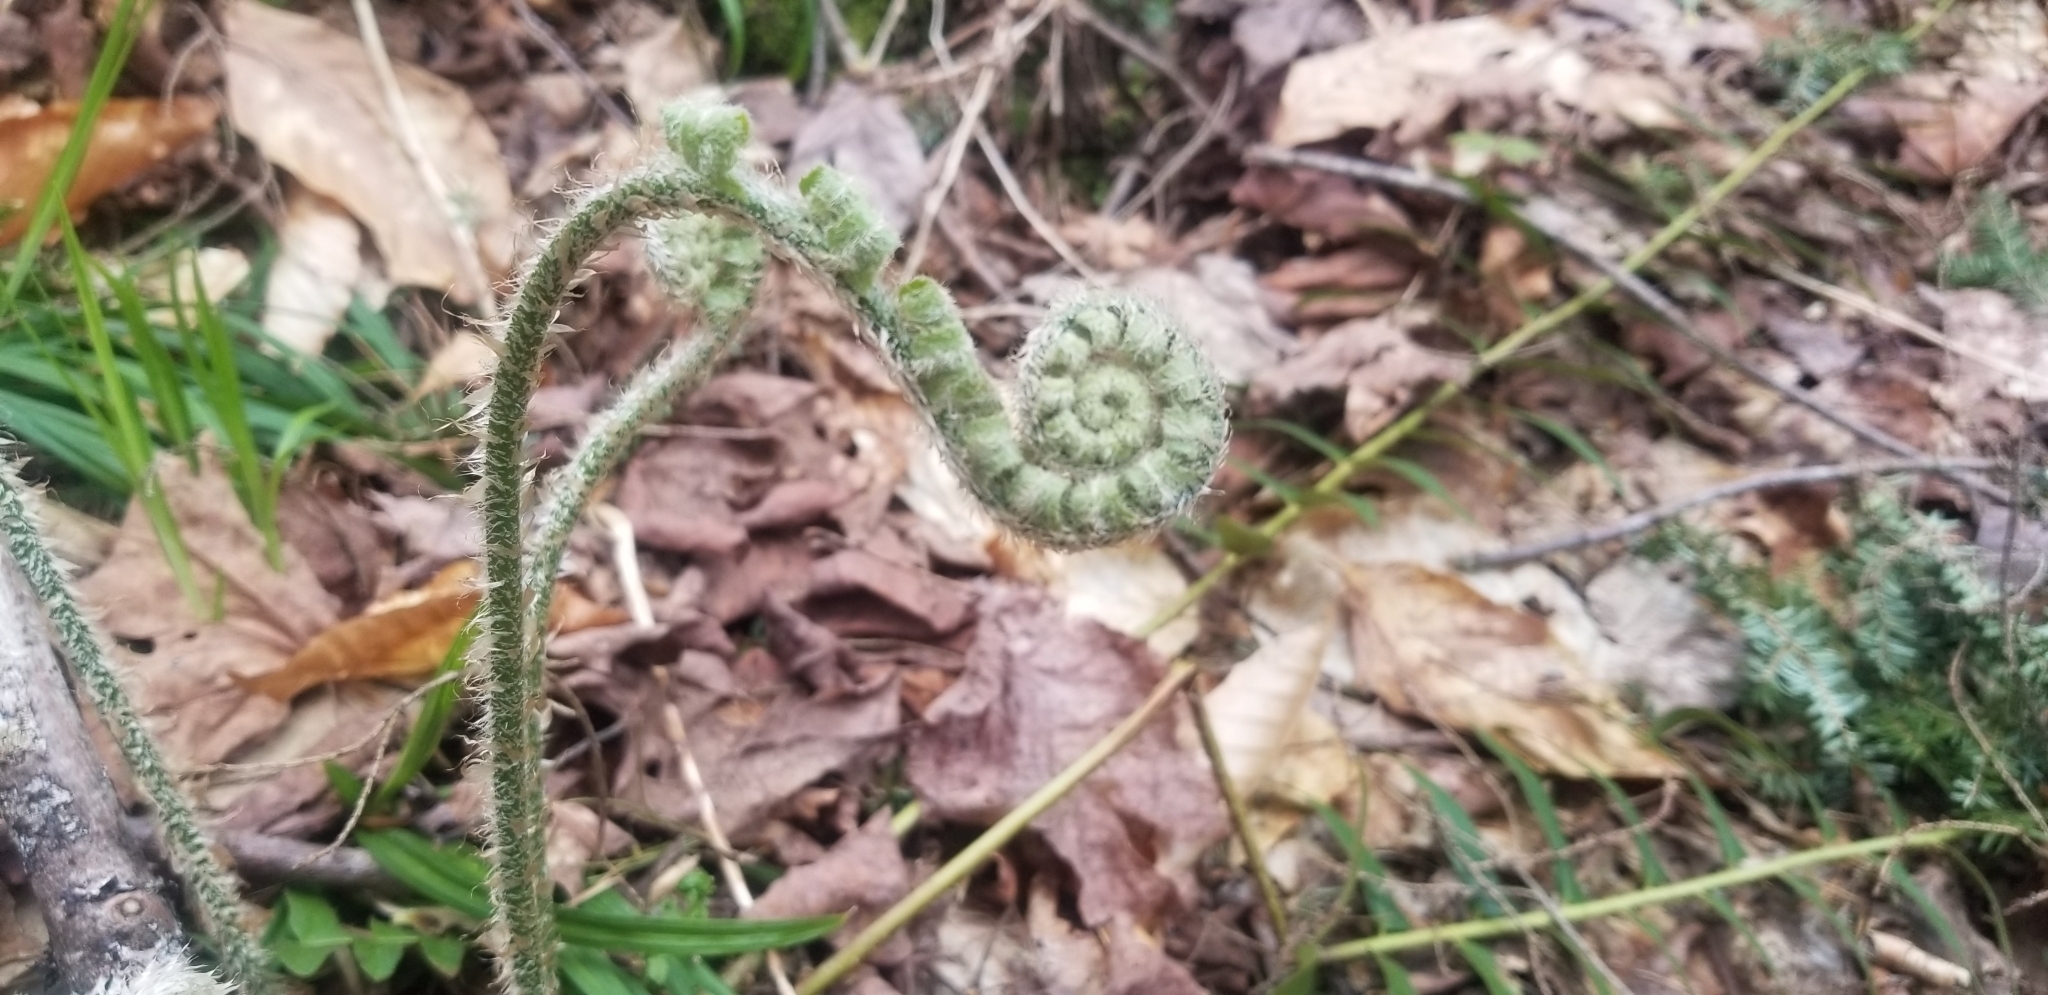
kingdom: Plantae
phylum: Tracheophyta
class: Polypodiopsida
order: Polypodiales
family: Dryopteridaceae
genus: Polystichum
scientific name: Polystichum acrostichoides
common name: Christmas fern
